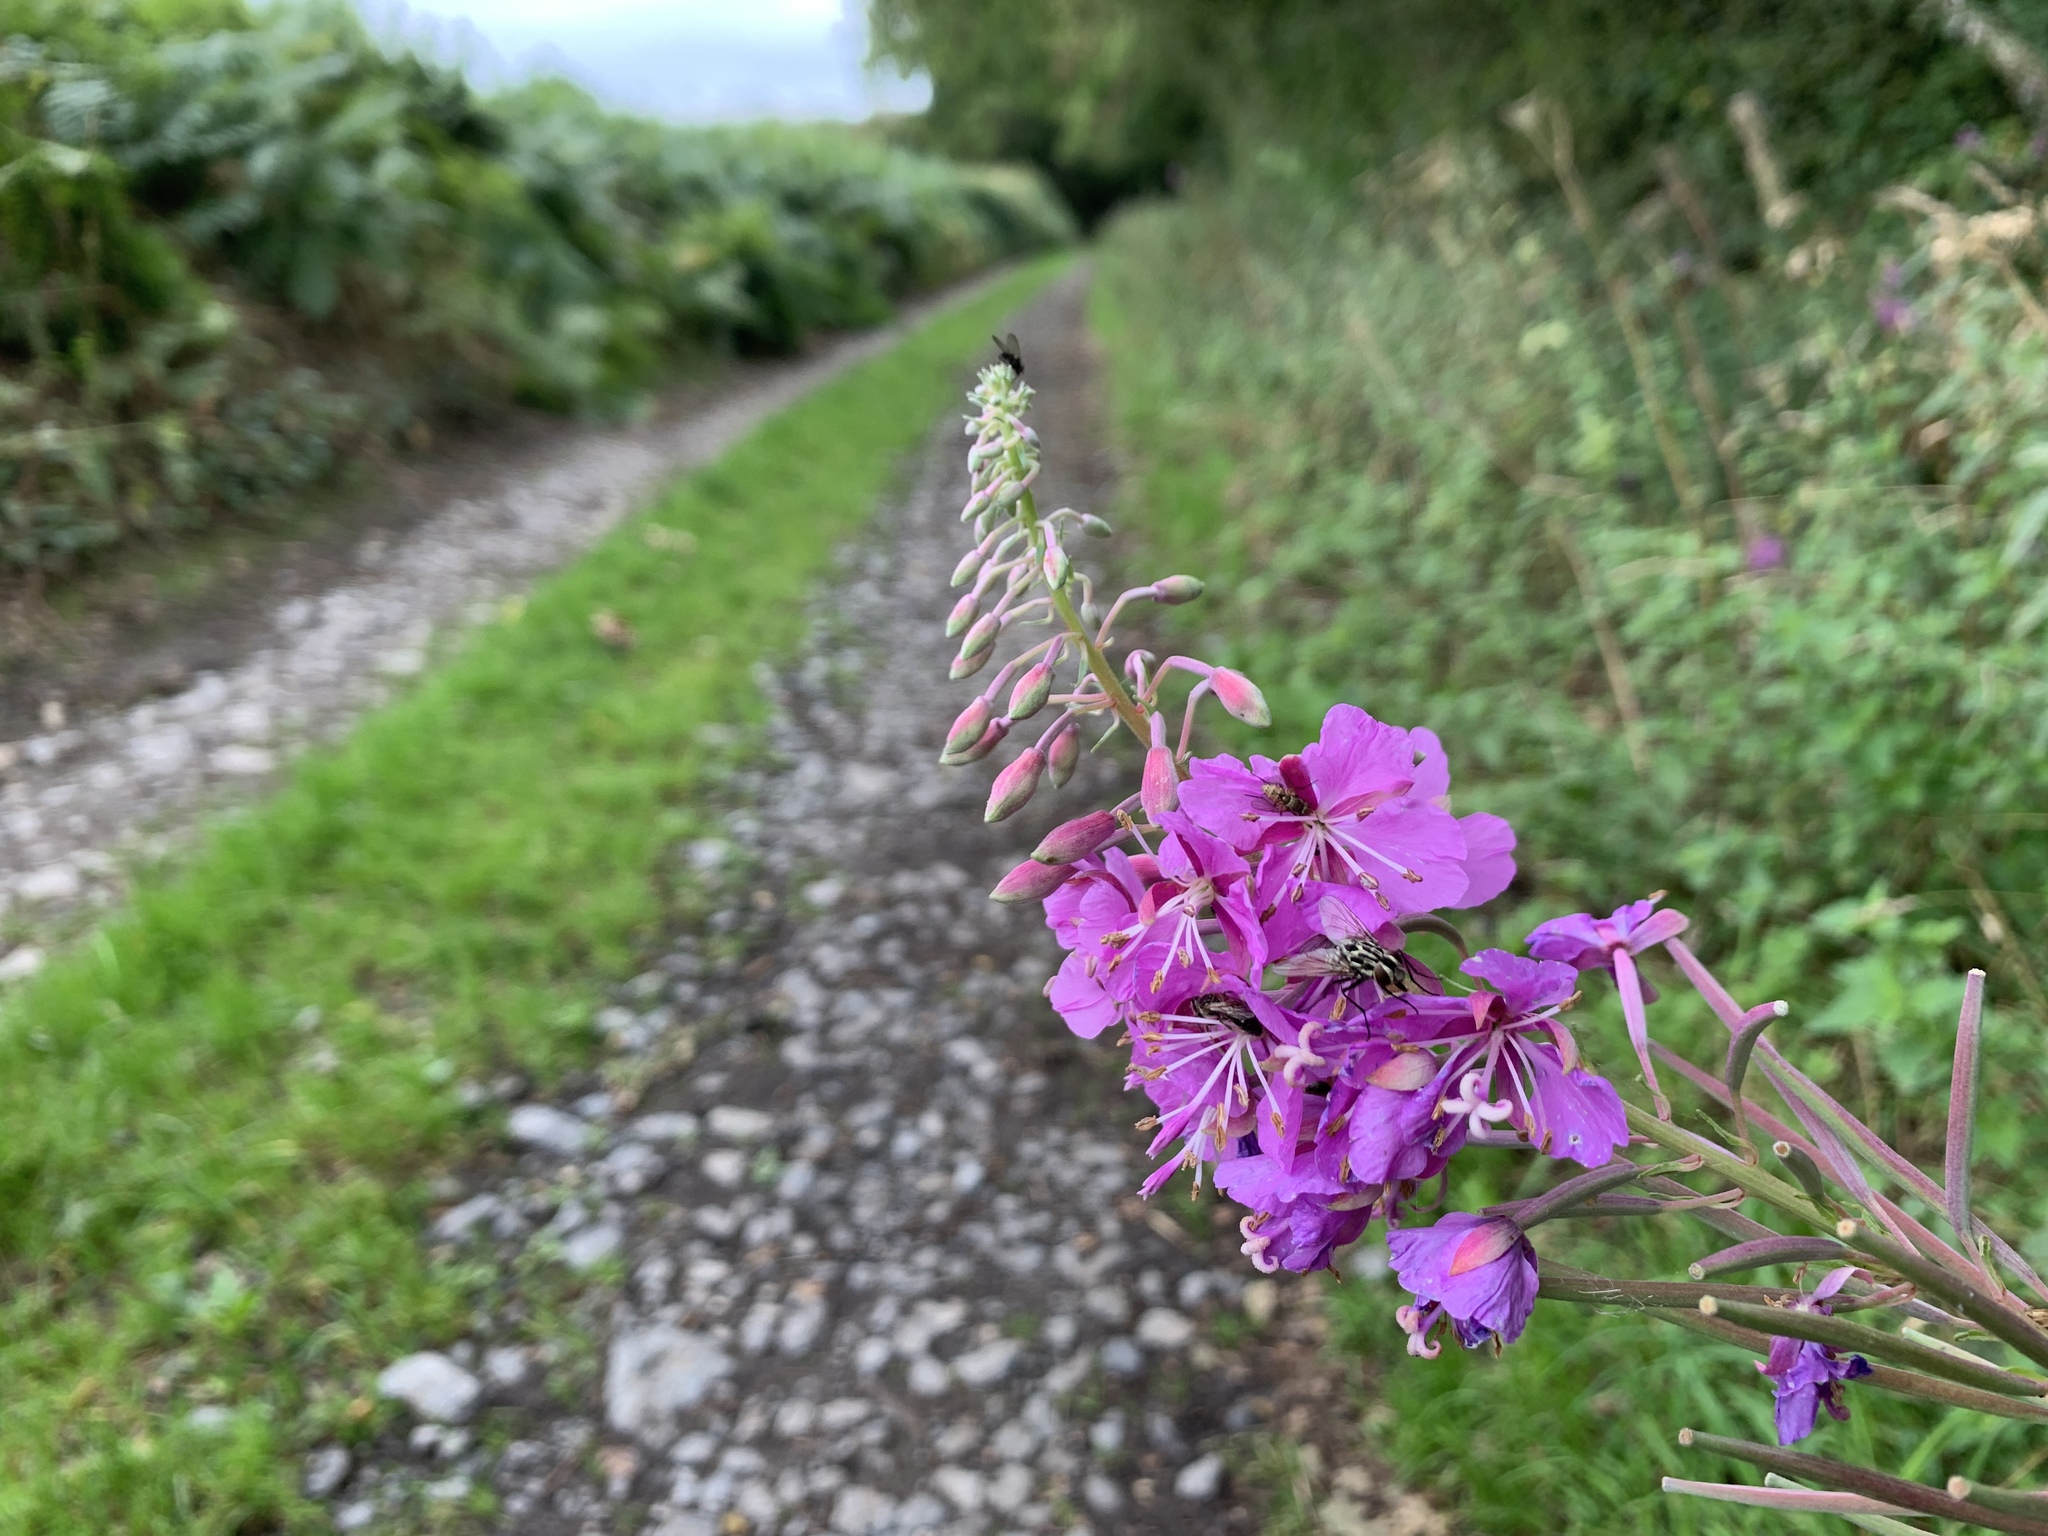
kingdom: Plantae
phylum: Tracheophyta
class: Magnoliopsida
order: Myrtales
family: Onagraceae
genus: Chamaenerion
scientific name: Chamaenerion angustifolium
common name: Fireweed
